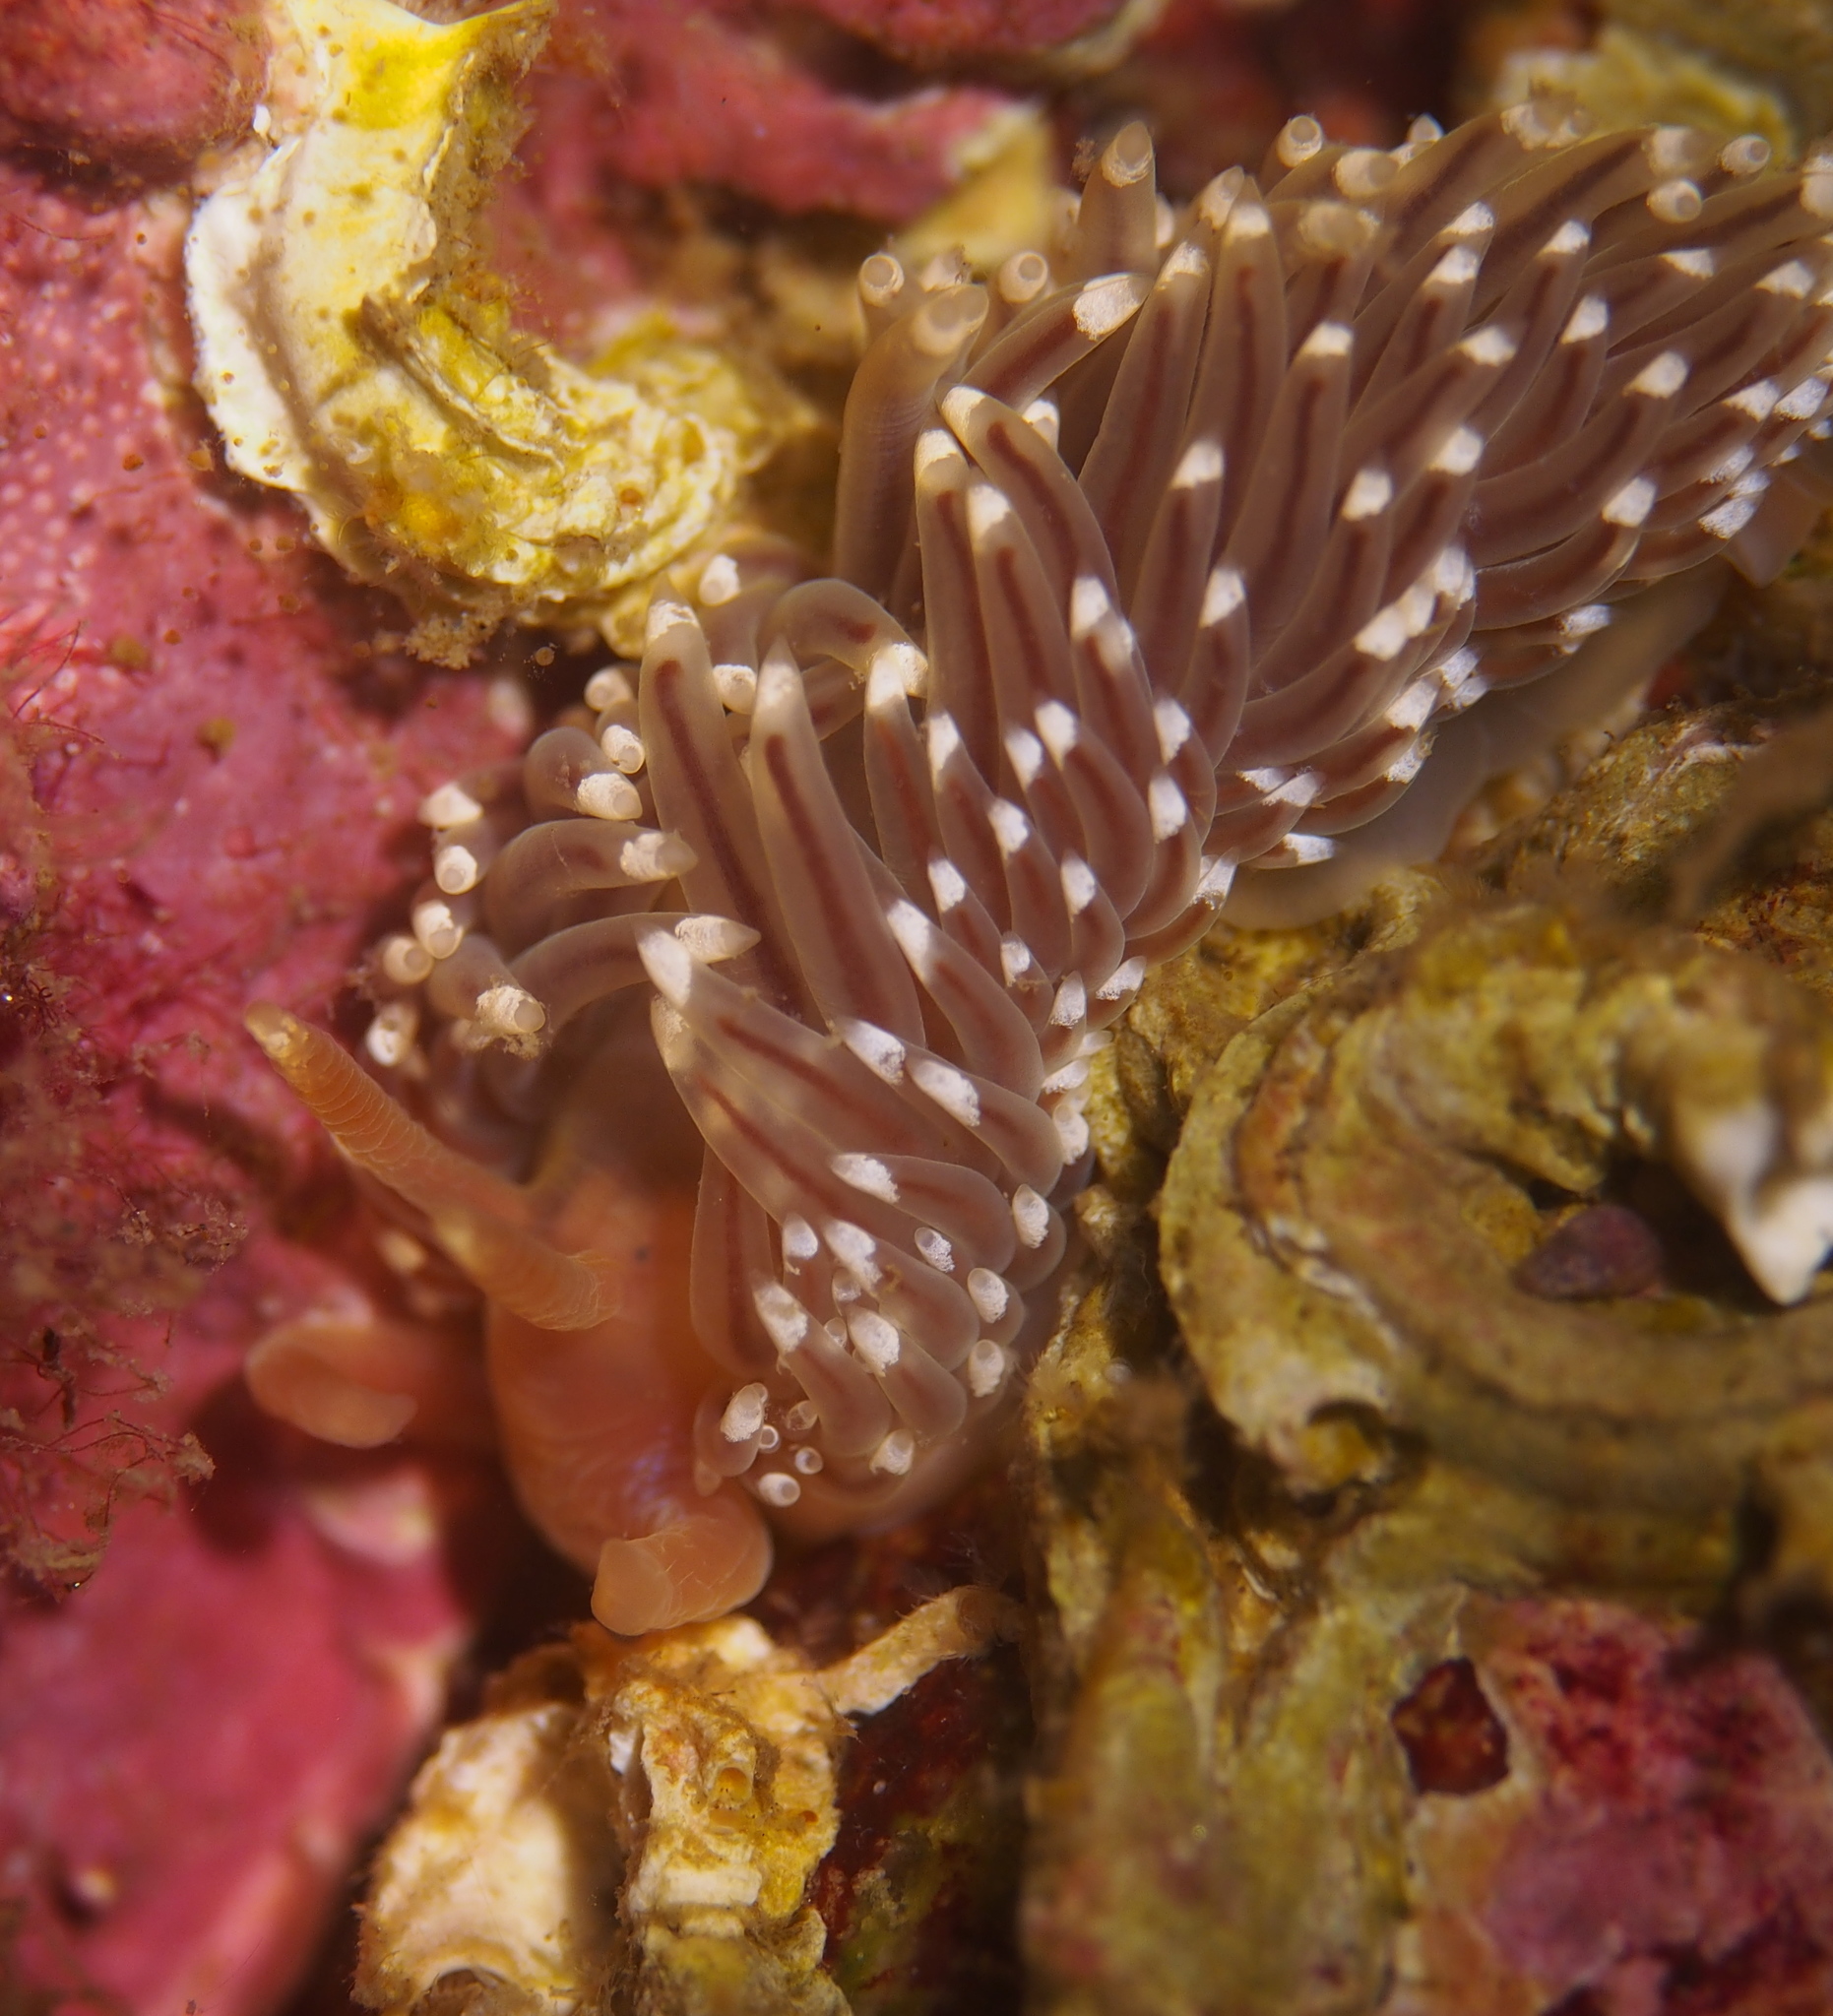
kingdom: Animalia
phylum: Mollusca
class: Gastropoda
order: Nudibranchia
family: Facelinidae
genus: Facelina
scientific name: Facelina bostoniensis
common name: Boston facelina
